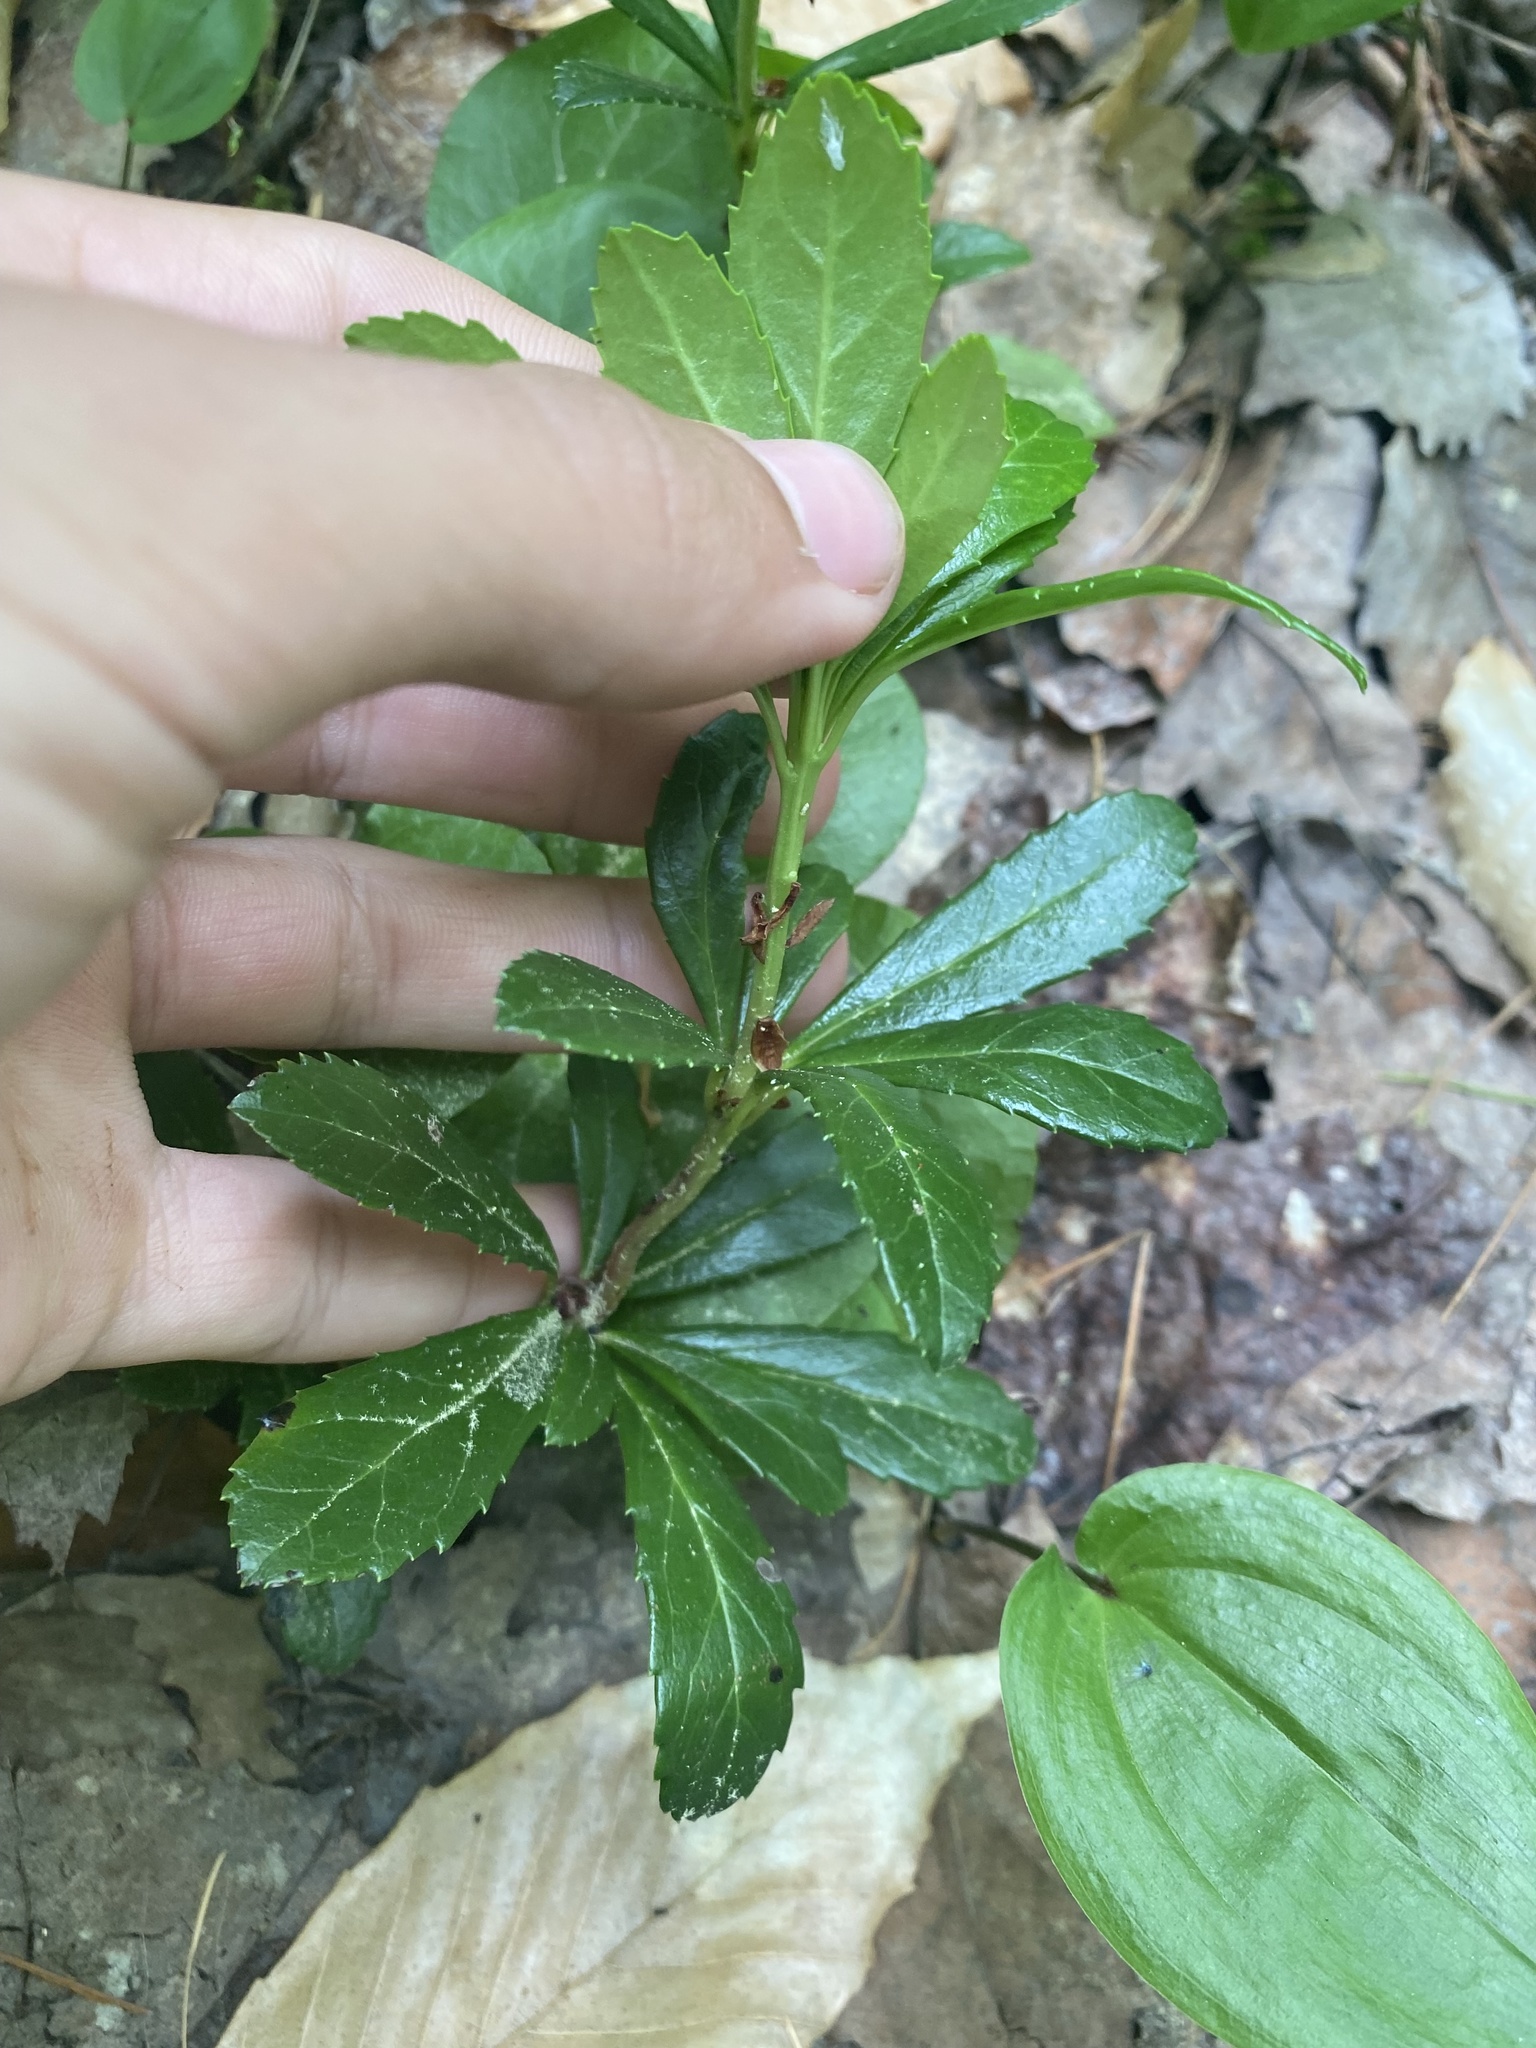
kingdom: Plantae
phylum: Tracheophyta
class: Magnoliopsida
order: Ericales
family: Ericaceae
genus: Chimaphila
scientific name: Chimaphila umbellata
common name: Pipsissewa
